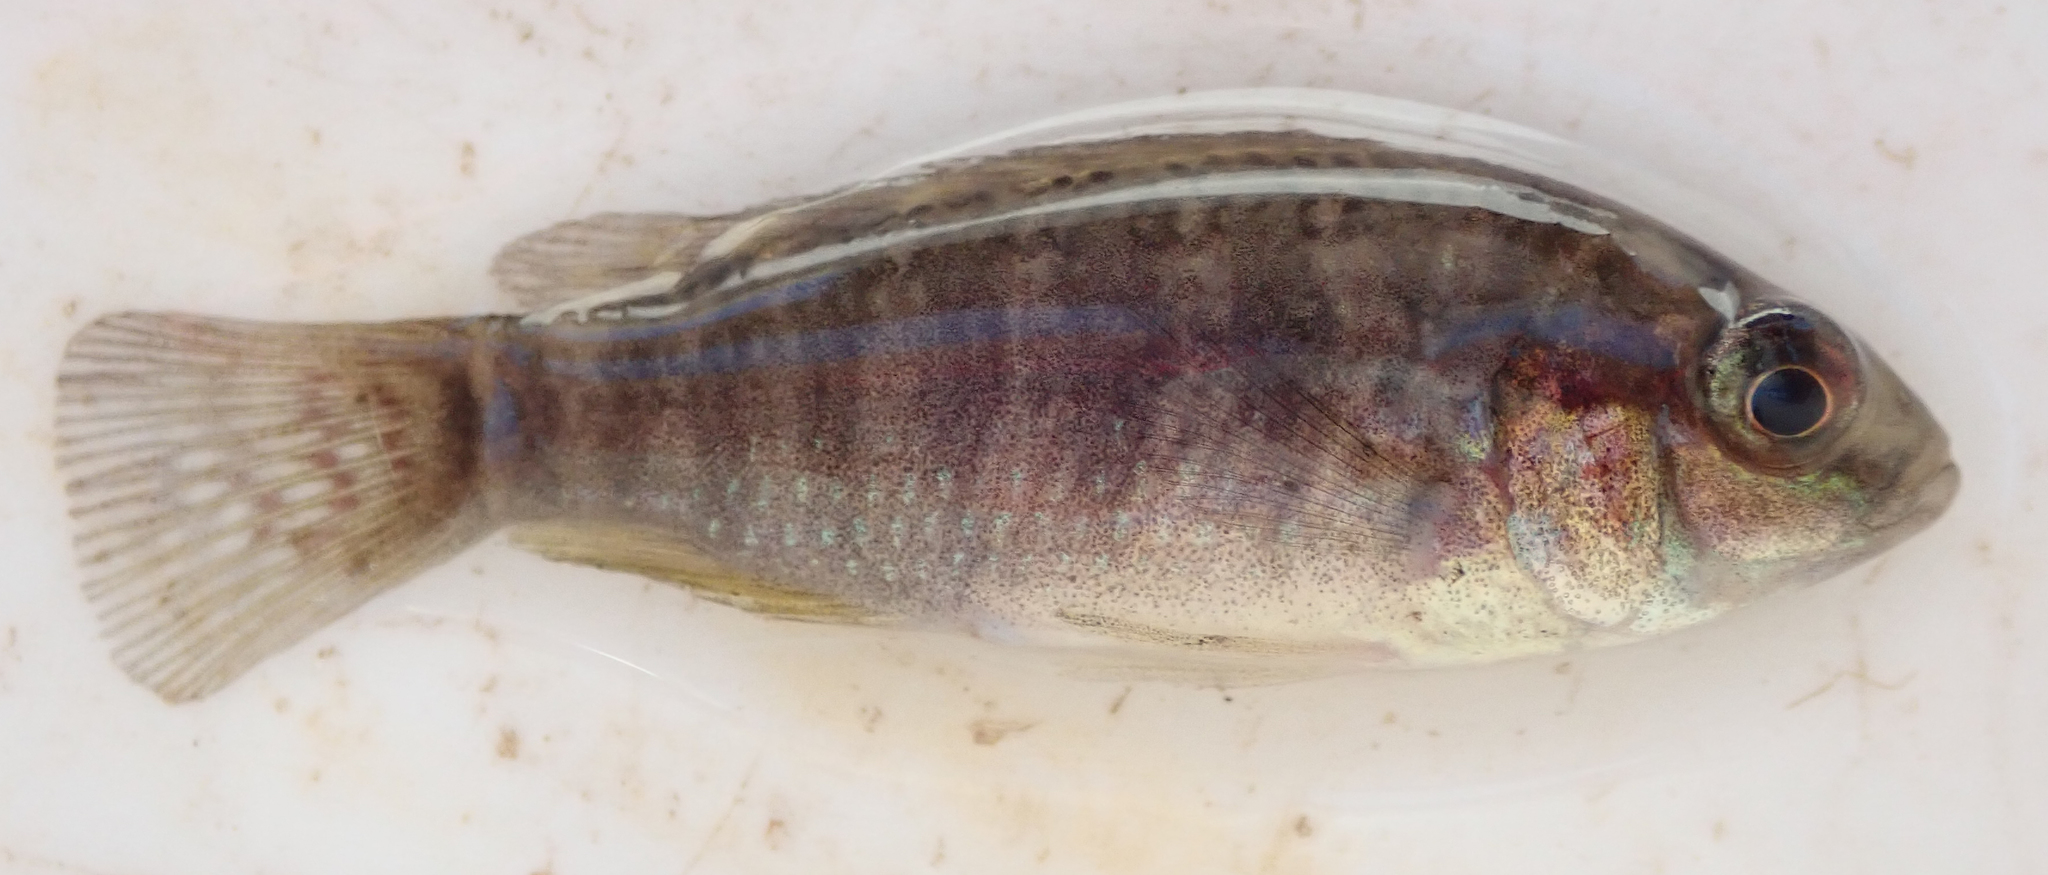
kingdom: Animalia
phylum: Chordata
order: Perciformes
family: Cichlidae
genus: Pseudocrenilabrus
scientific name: Pseudocrenilabrus philander
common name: Southern mouthbrooder
